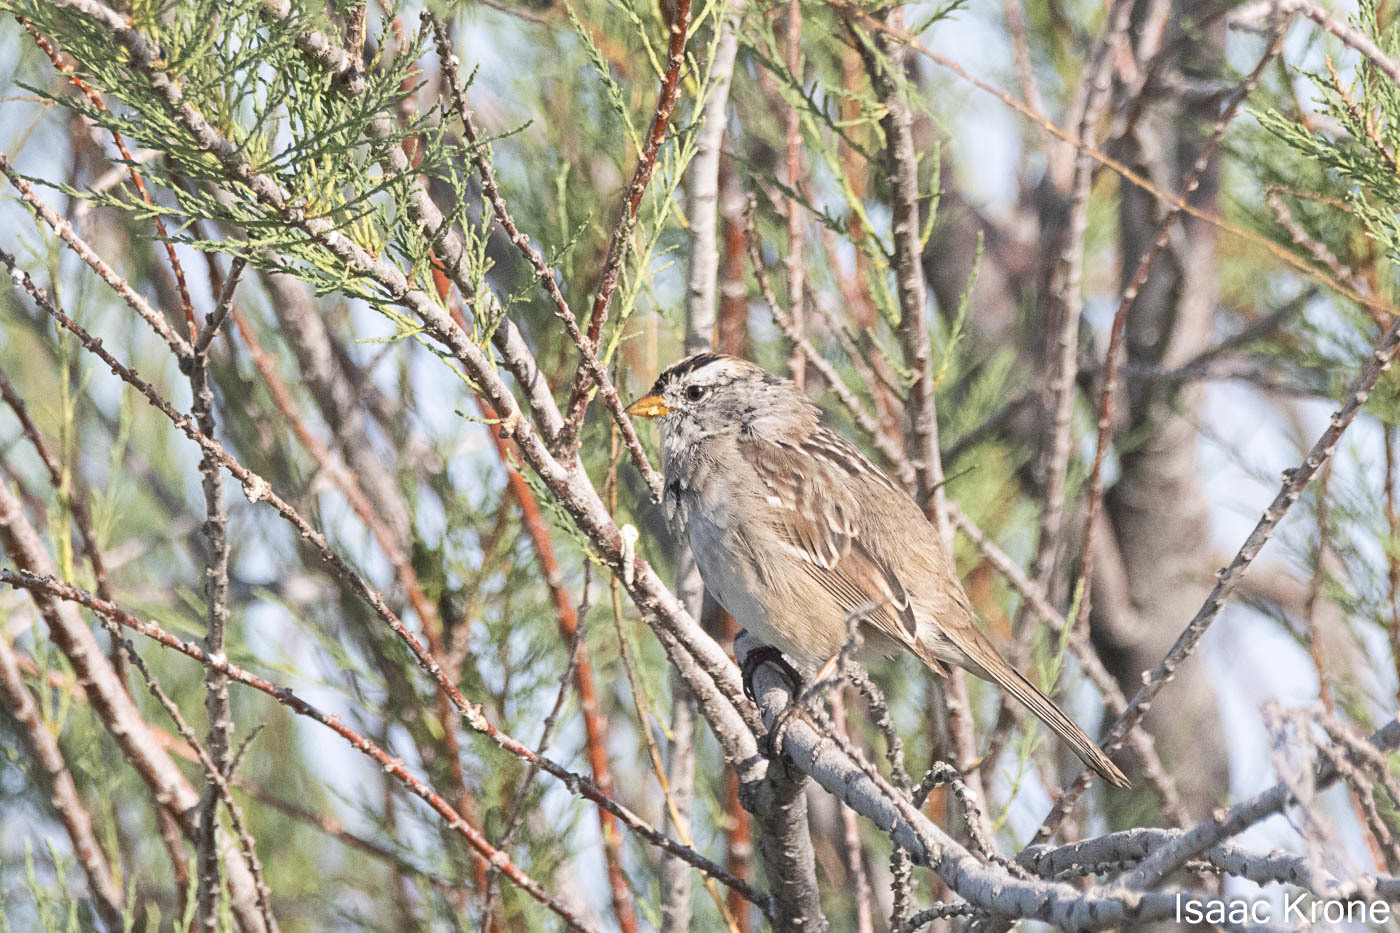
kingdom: Animalia
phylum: Chordata
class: Aves
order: Passeriformes
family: Passerellidae
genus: Zonotrichia
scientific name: Zonotrichia leucophrys
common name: White-crowned sparrow
